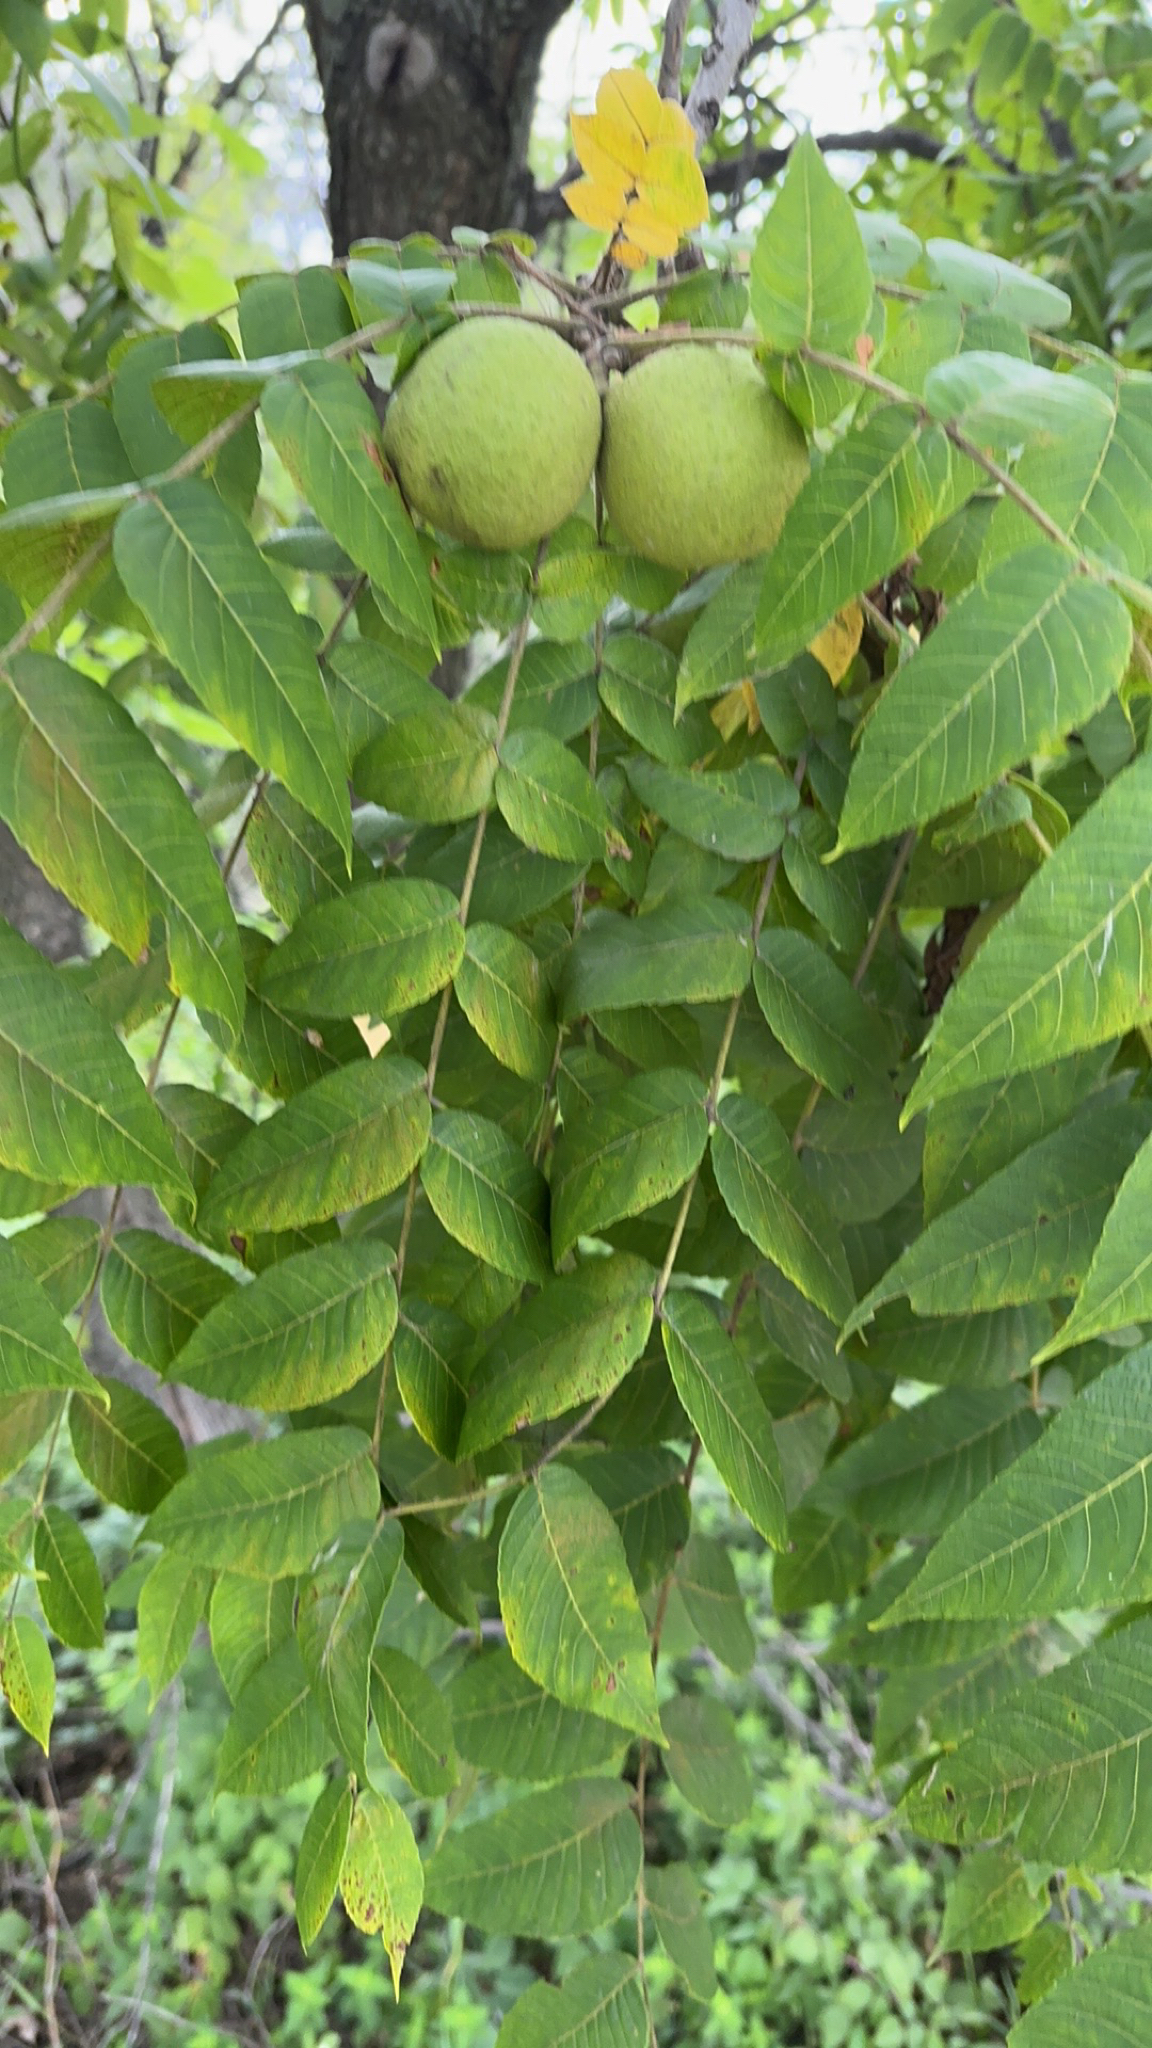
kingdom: Plantae
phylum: Tracheophyta
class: Magnoliopsida
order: Fagales
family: Juglandaceae
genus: Juglans
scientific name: Juglans nigra
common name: Black walnut
